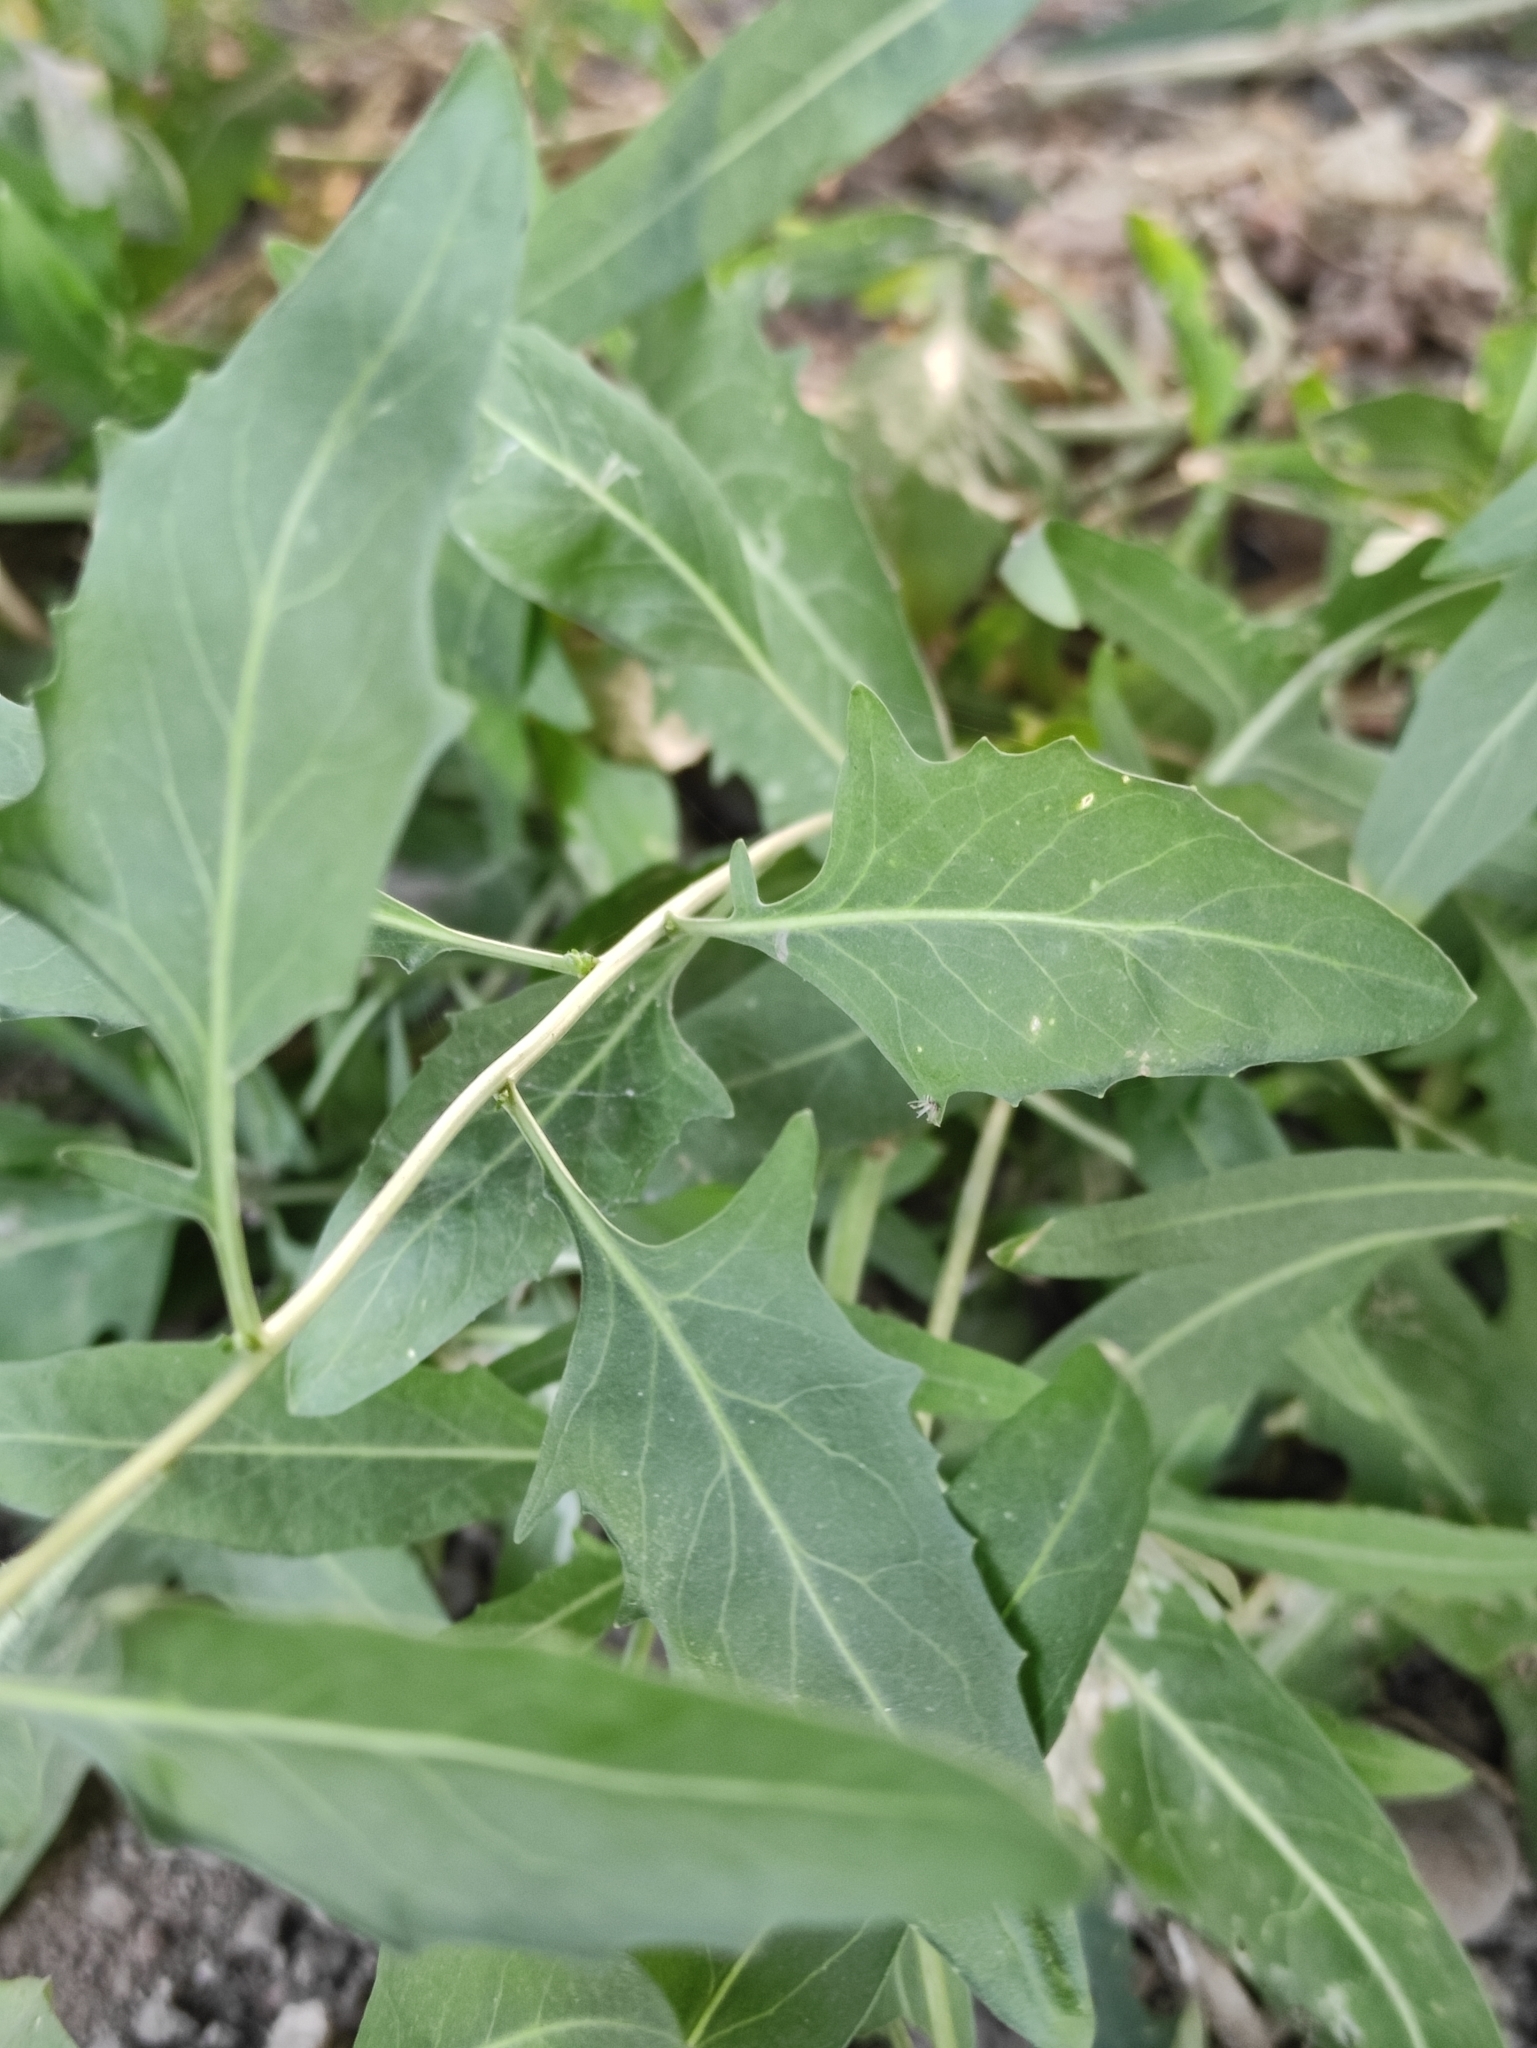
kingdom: Plantae
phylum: Tracheophyta
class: Magnoliopsida
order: Brassicales
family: Brassicaceae
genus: Sisymbrium
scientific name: Sisymbrium volgense
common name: Russian mustard
